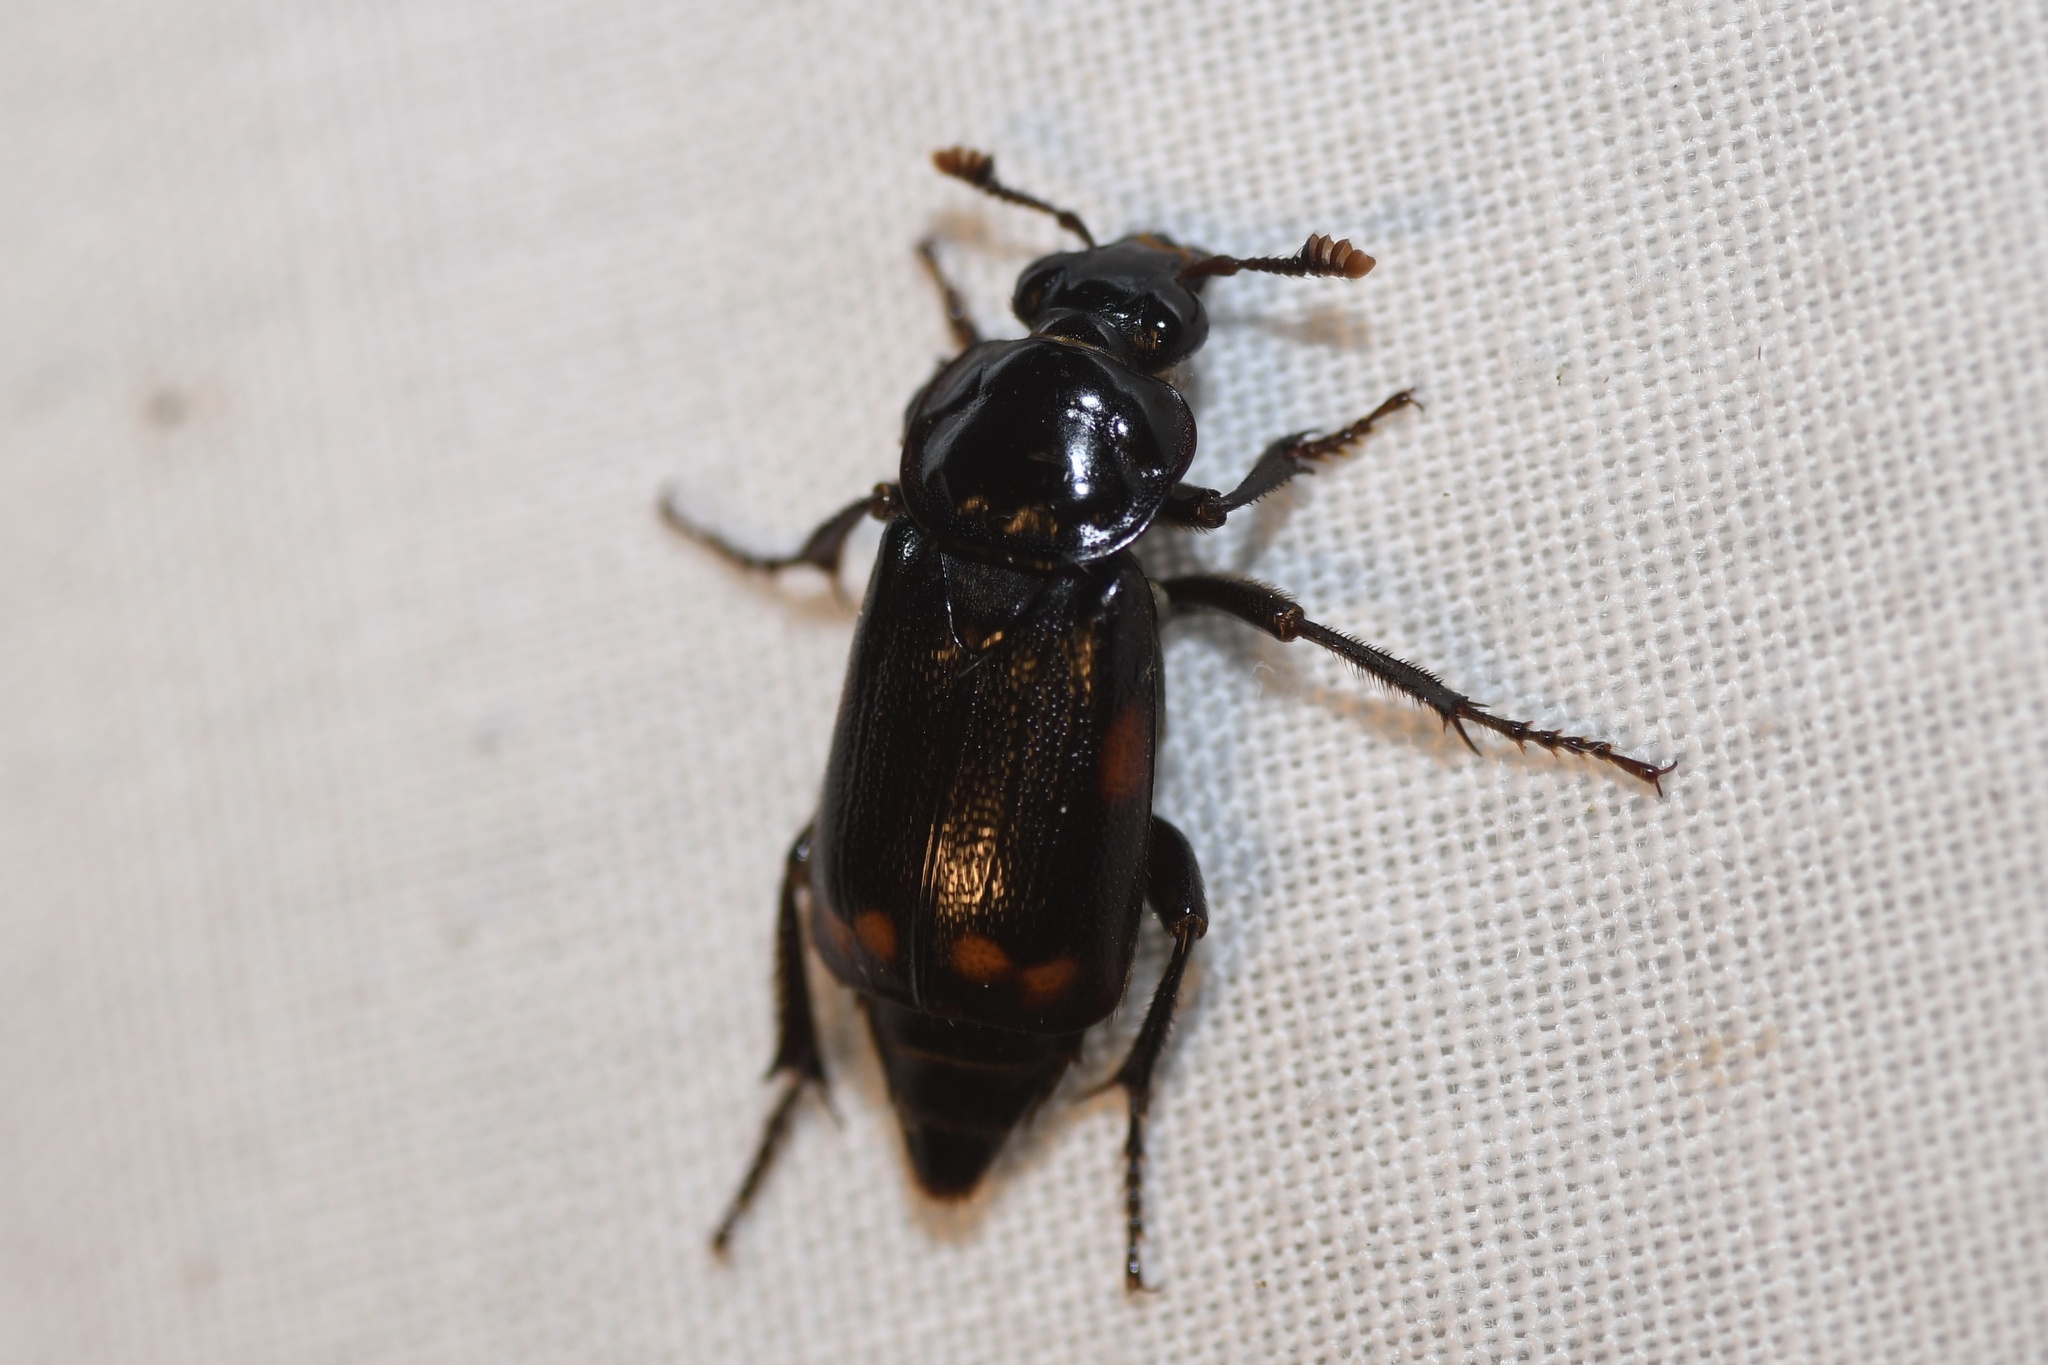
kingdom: Animalia
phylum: Arthropoda
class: Insecta
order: Coleoptera
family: Staphylinidae
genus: Nicrophorus
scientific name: Nicrophorus pustulatus
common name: Pustulated carrion beetle
